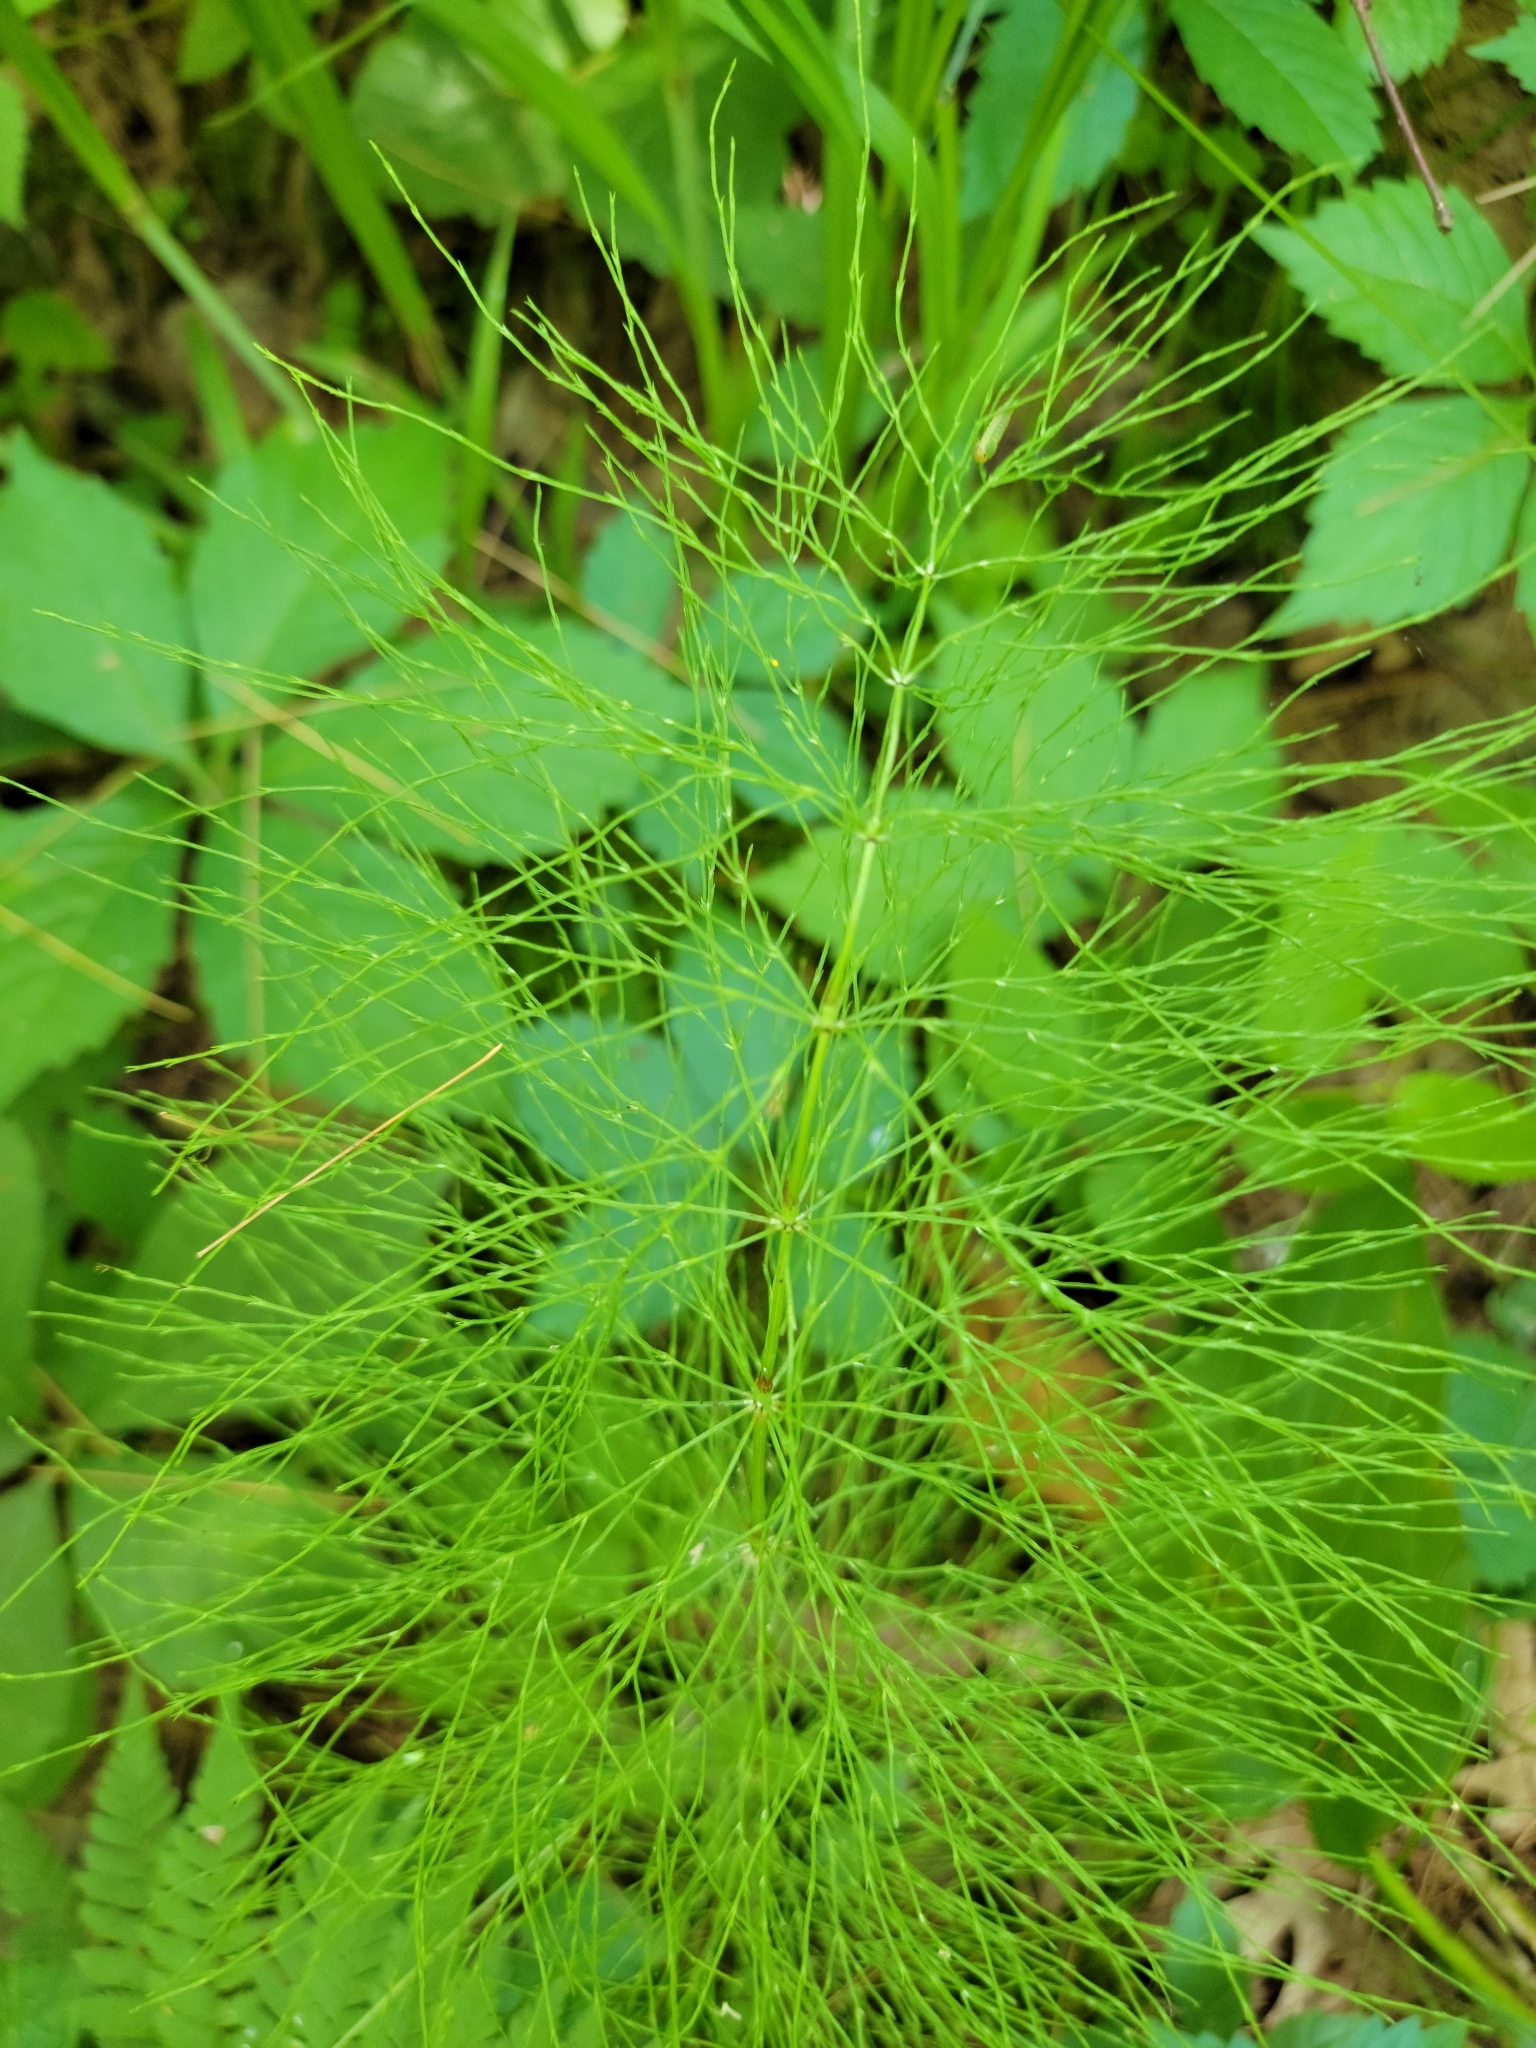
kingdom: Plantae
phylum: Tracheophyta
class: Polypodiopsida
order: Equisetales
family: Equisetaceae
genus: Equisetum
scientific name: Equisetum sylvaticum
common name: Wood horsetail
